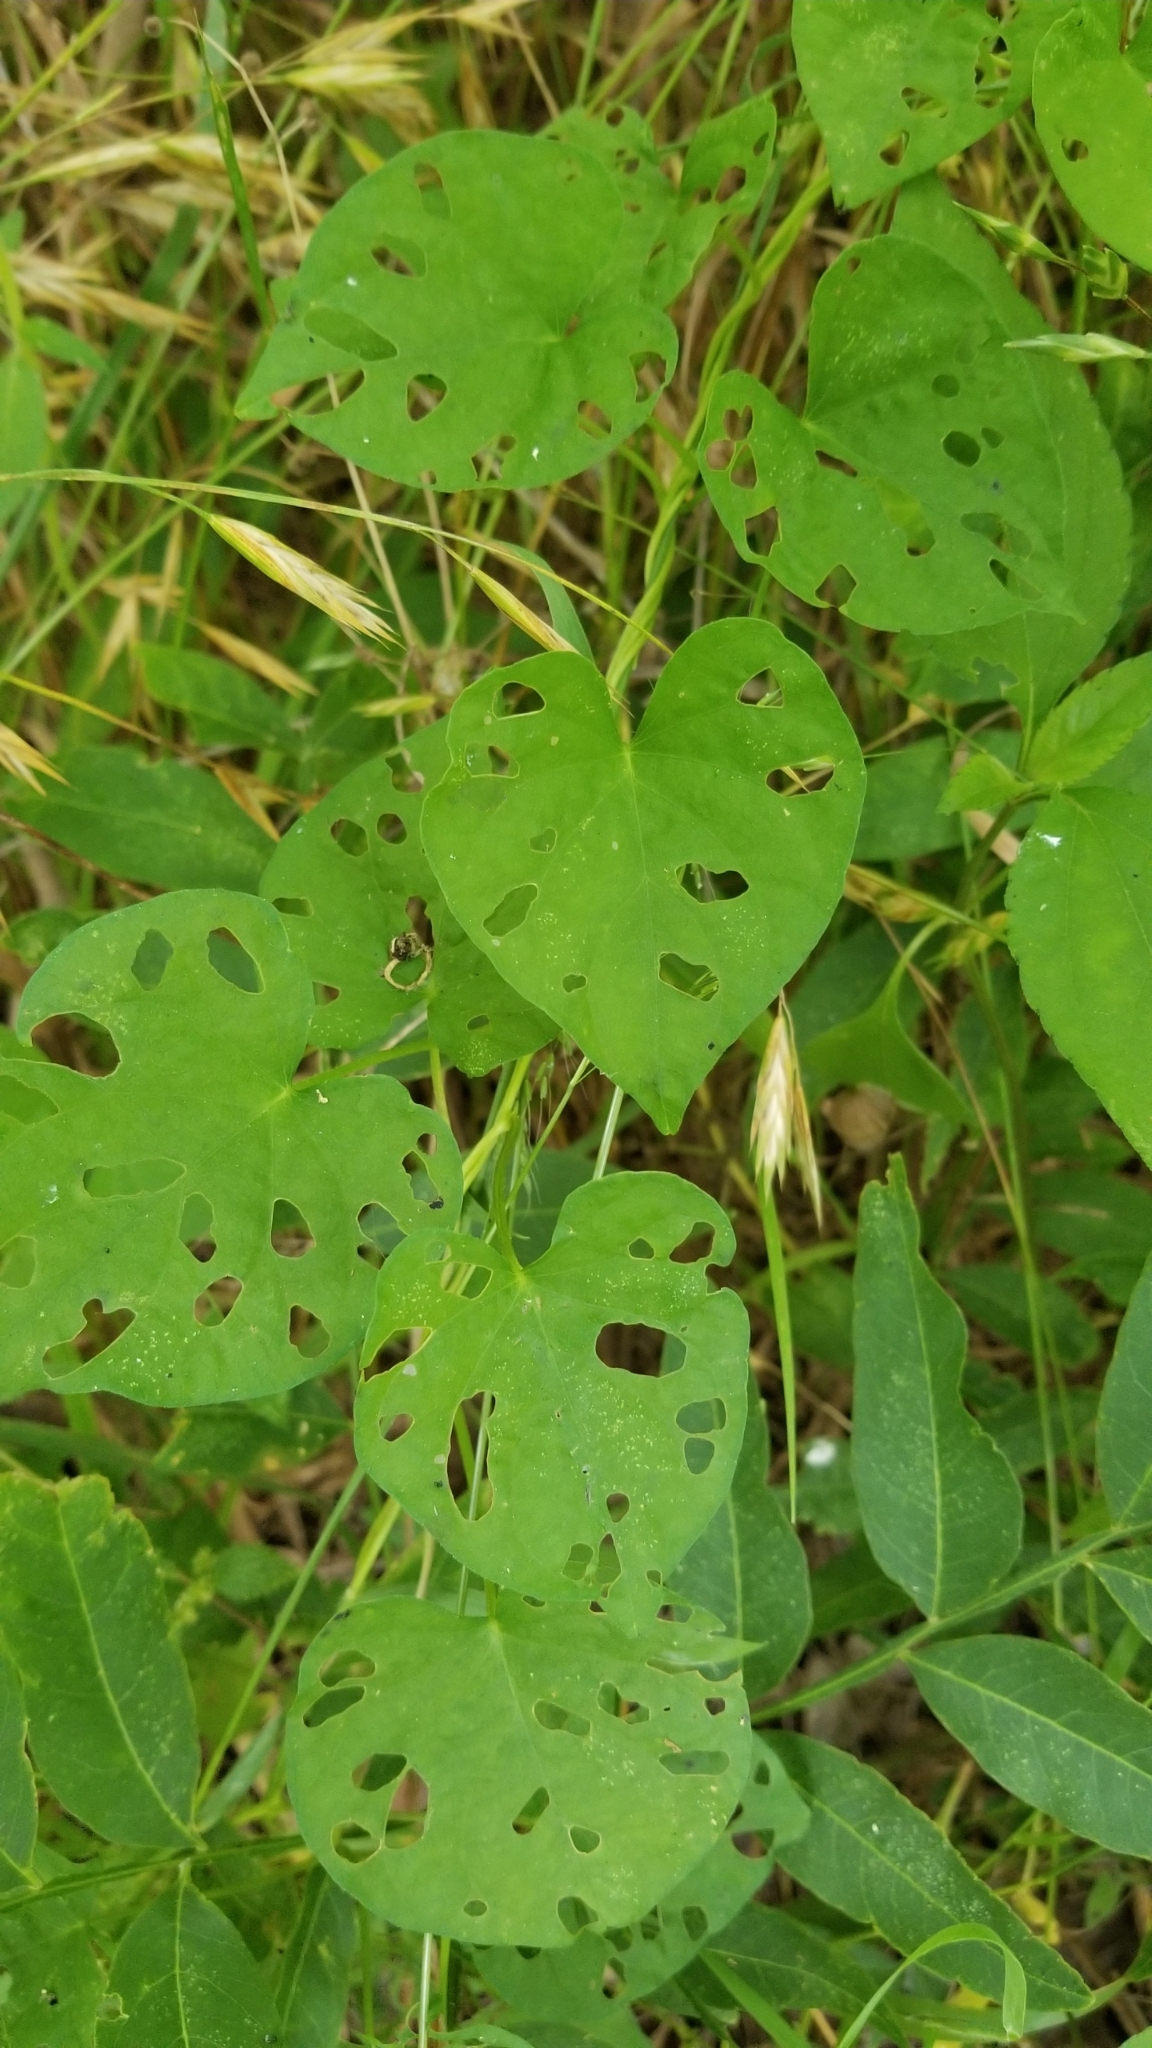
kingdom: Plantae
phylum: Tracheophyta
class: Magnoliopsida
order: Solanales
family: Convolvulaceae
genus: Ipomoea
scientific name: Ipomoea pandurata
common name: Man-of-the-earth
